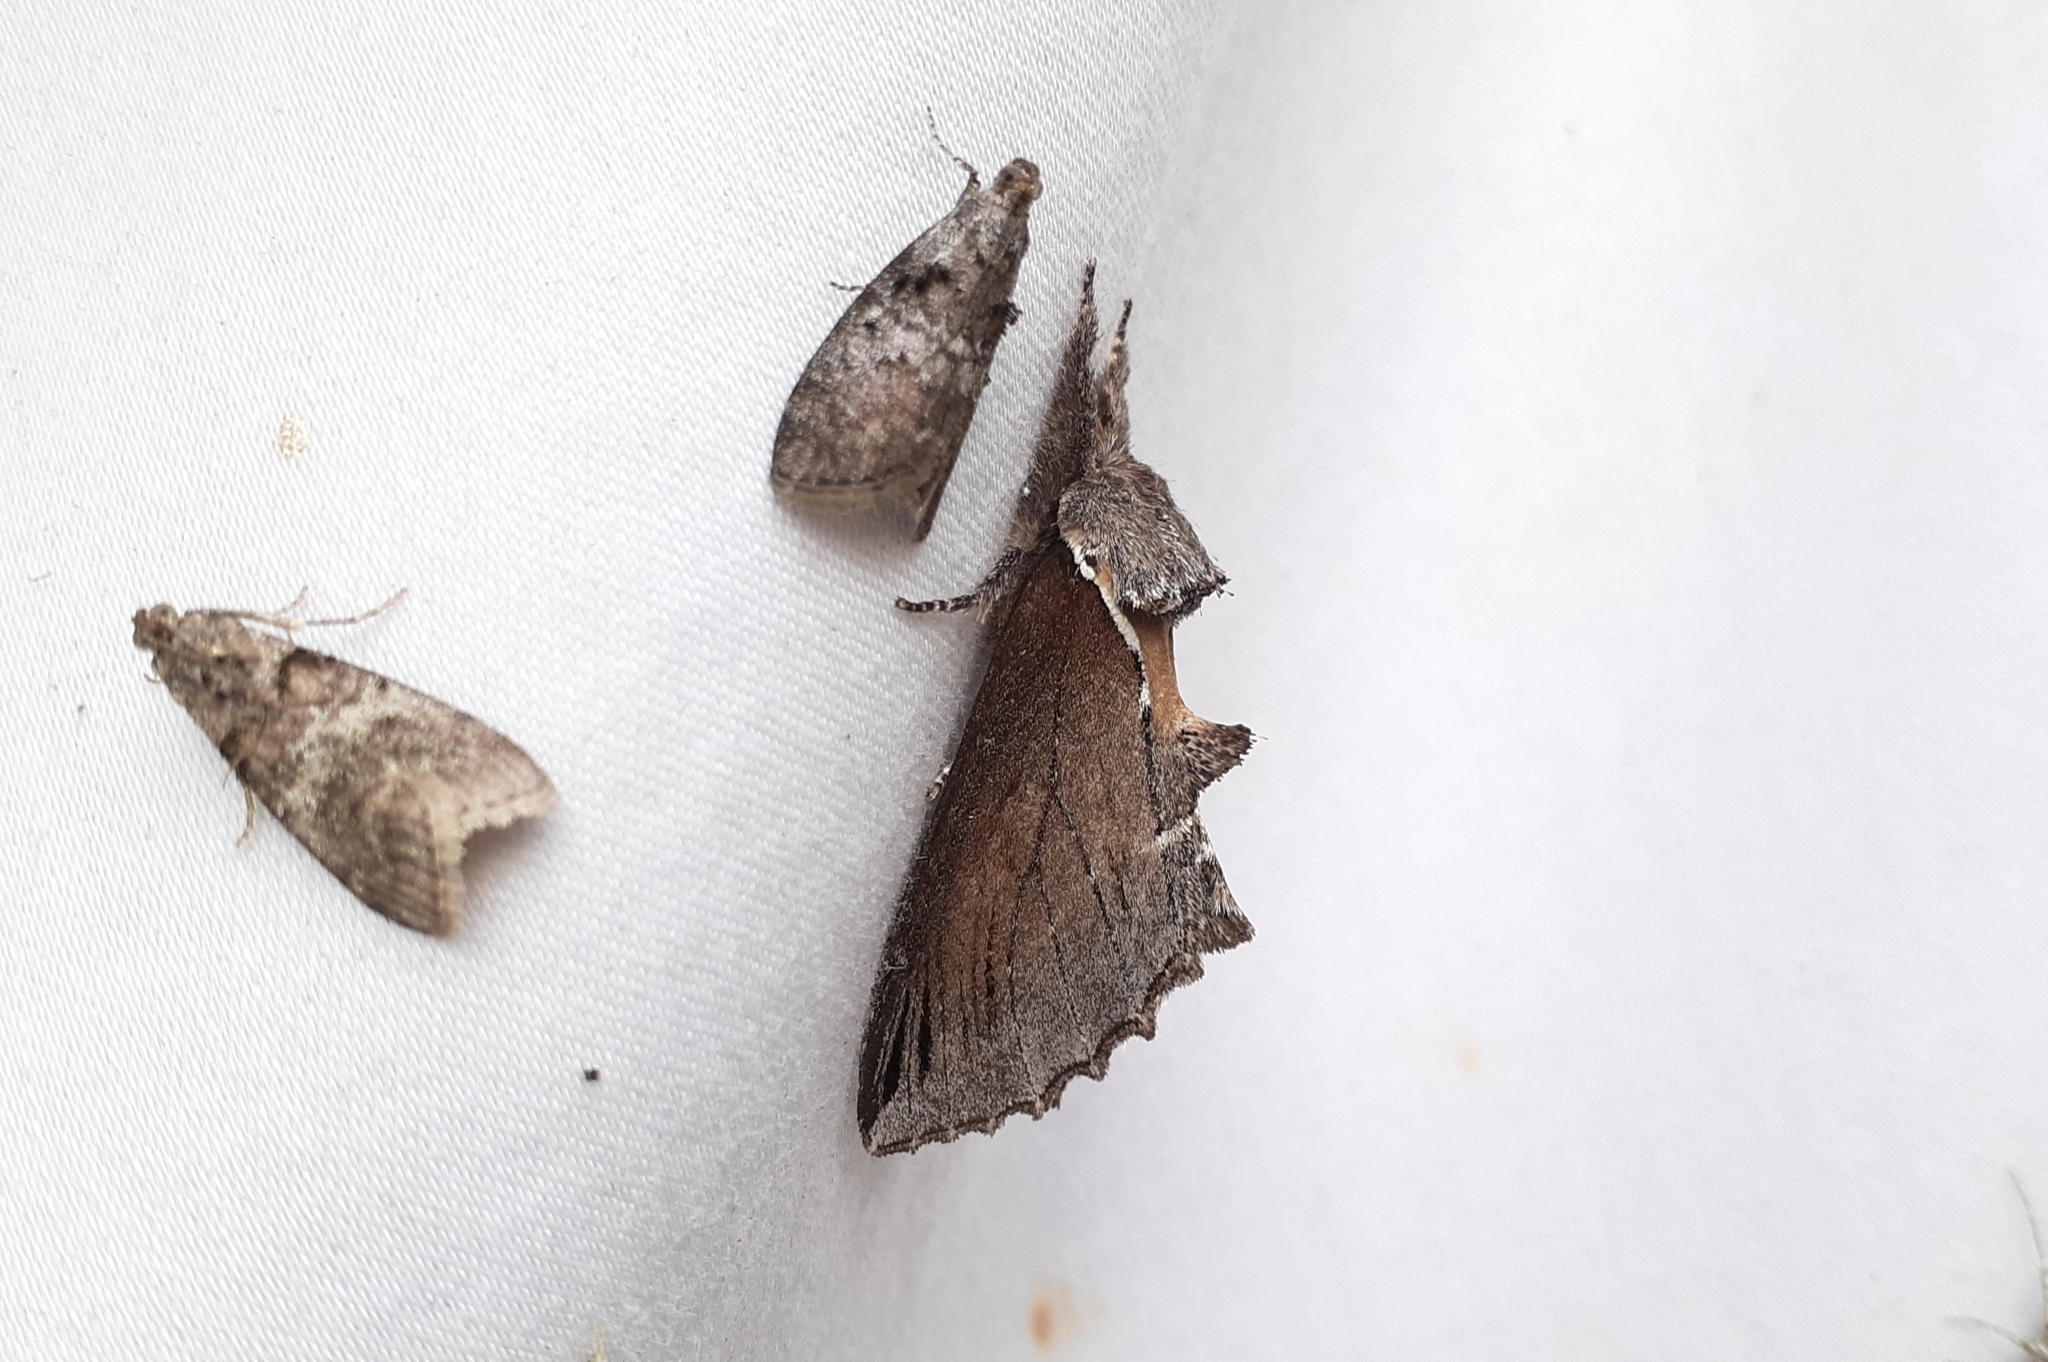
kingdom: Animalia
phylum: Arthropoda
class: Insecta
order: Lepidoptera
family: Notodontidae
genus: Pheosidea
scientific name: Pheosidea elegans
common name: Elegant prominent
